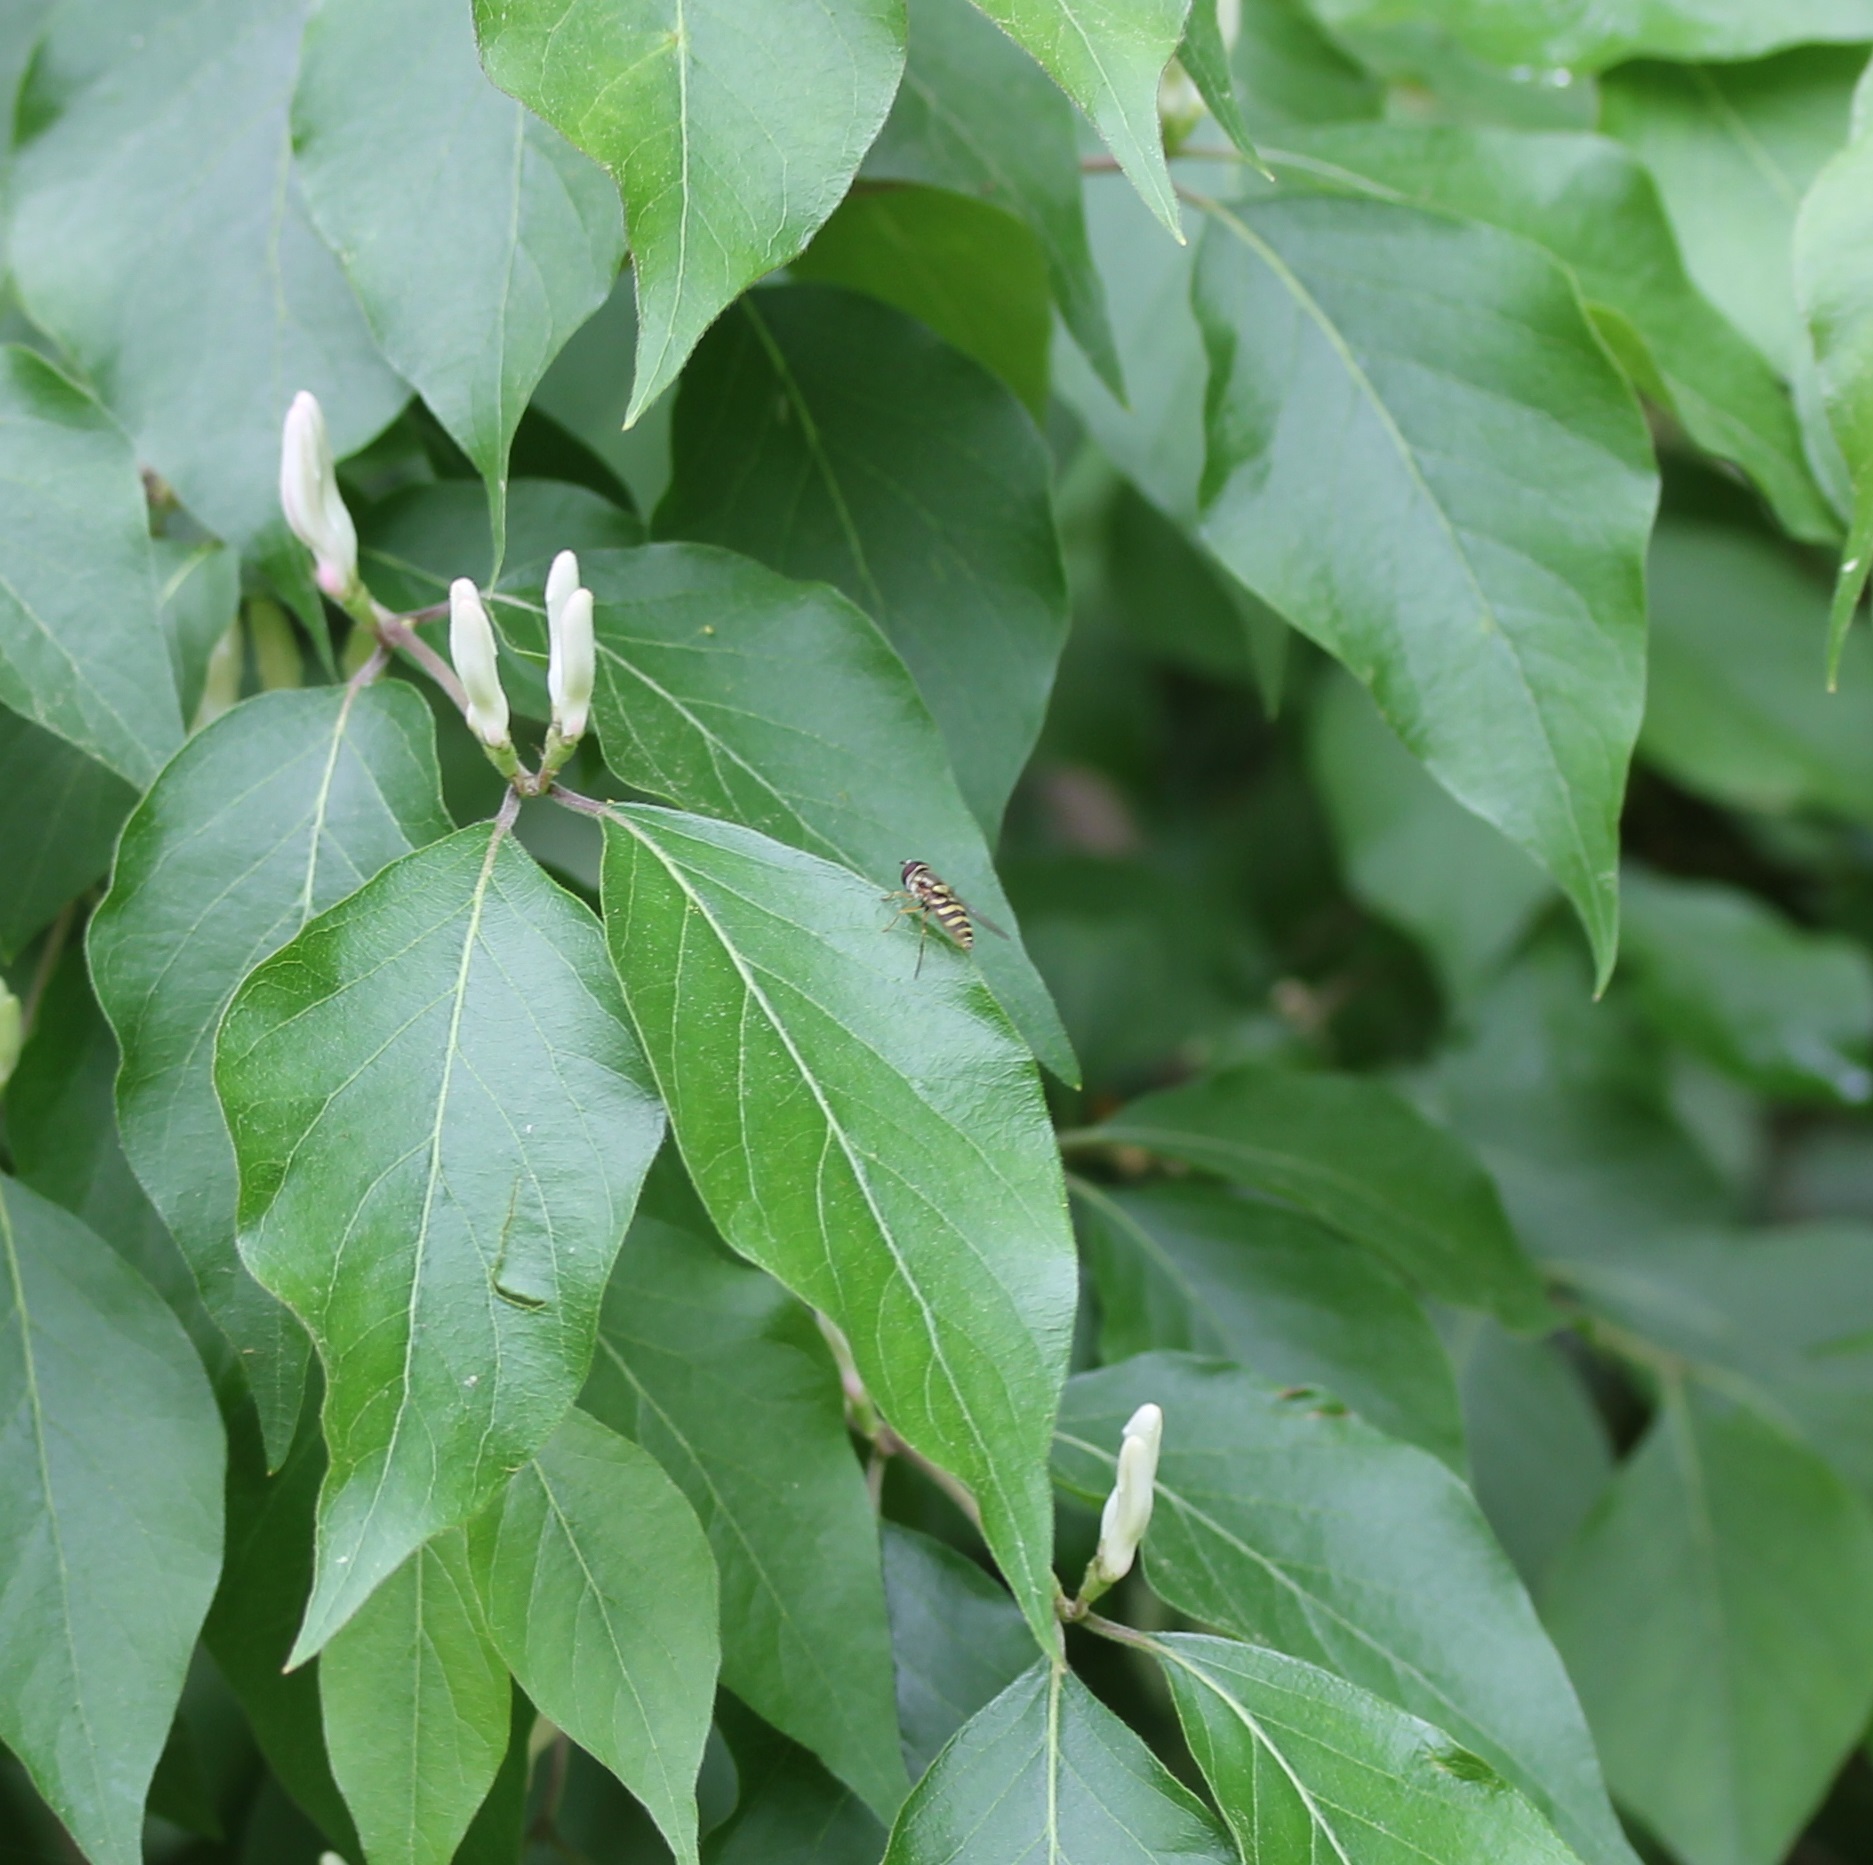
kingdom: Animalia
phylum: Arthropoda
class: Insecta
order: Diptera
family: Syrphidae
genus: Syrphus
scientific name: Syrphus
